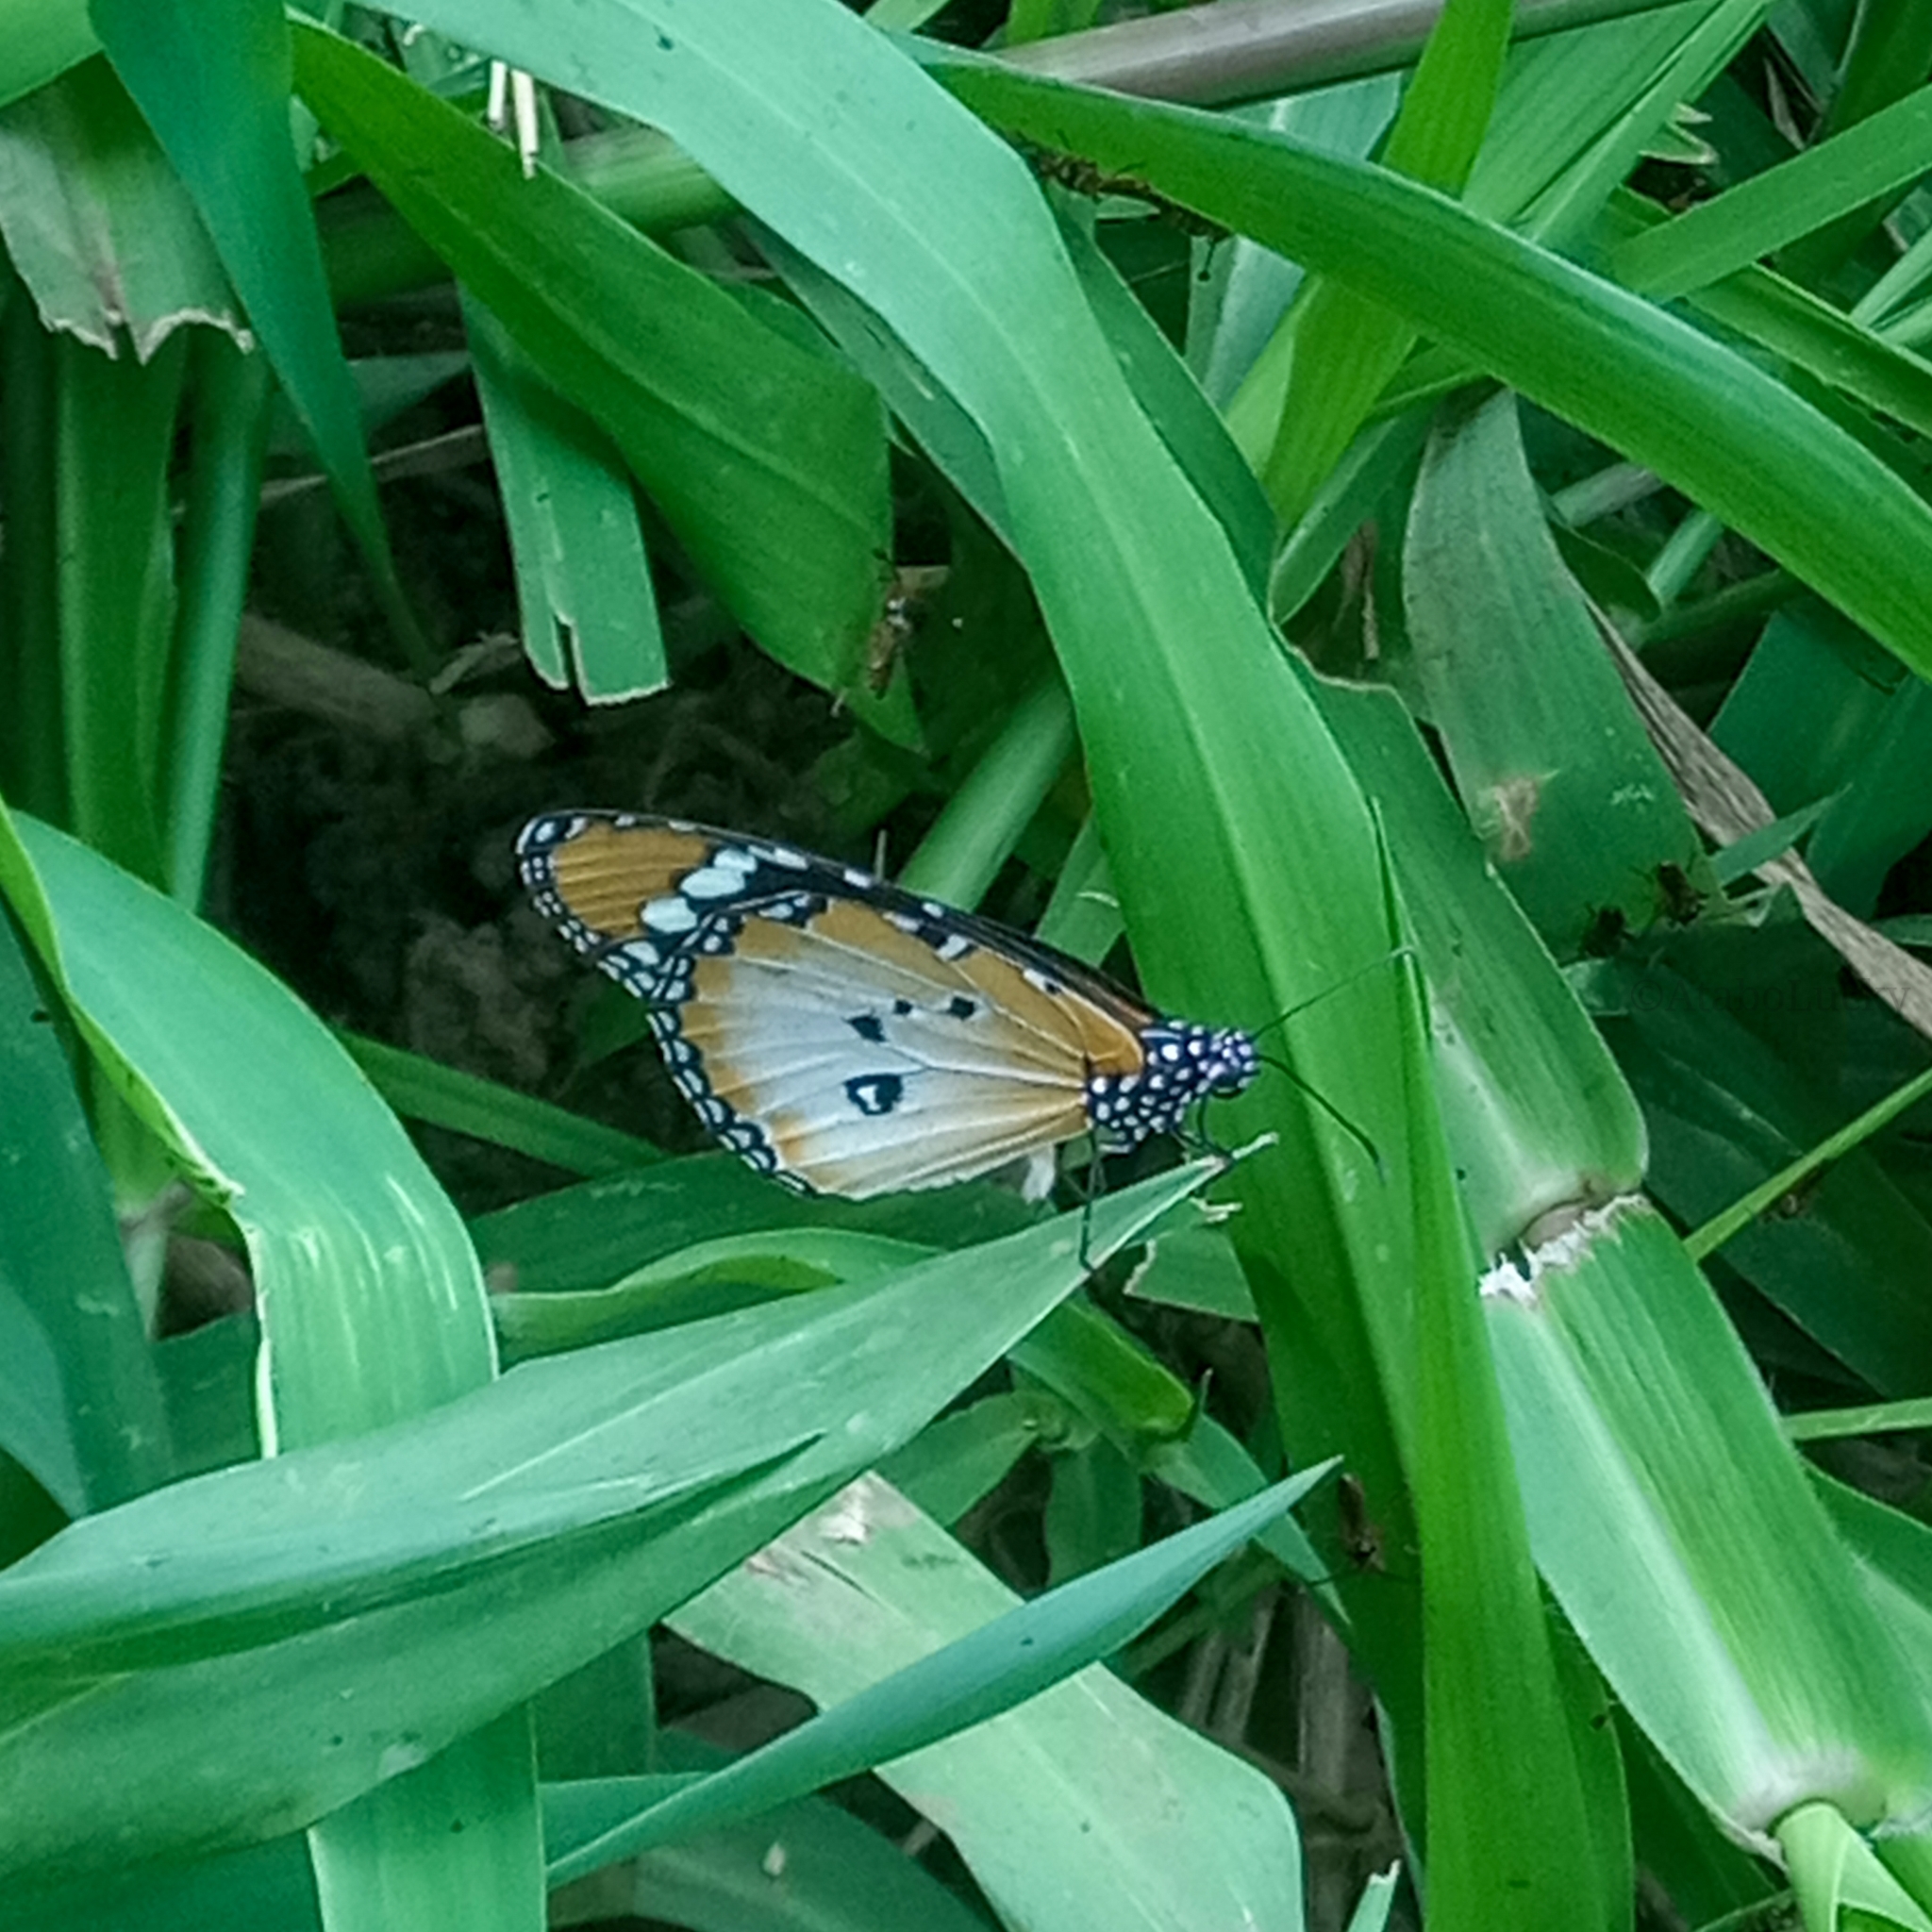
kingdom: Animalia
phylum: Arthropoda
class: Insecta
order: Lepidoptera
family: Nymphalidae
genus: Danaus
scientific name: Danaus chrysippus
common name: Plain tiger
